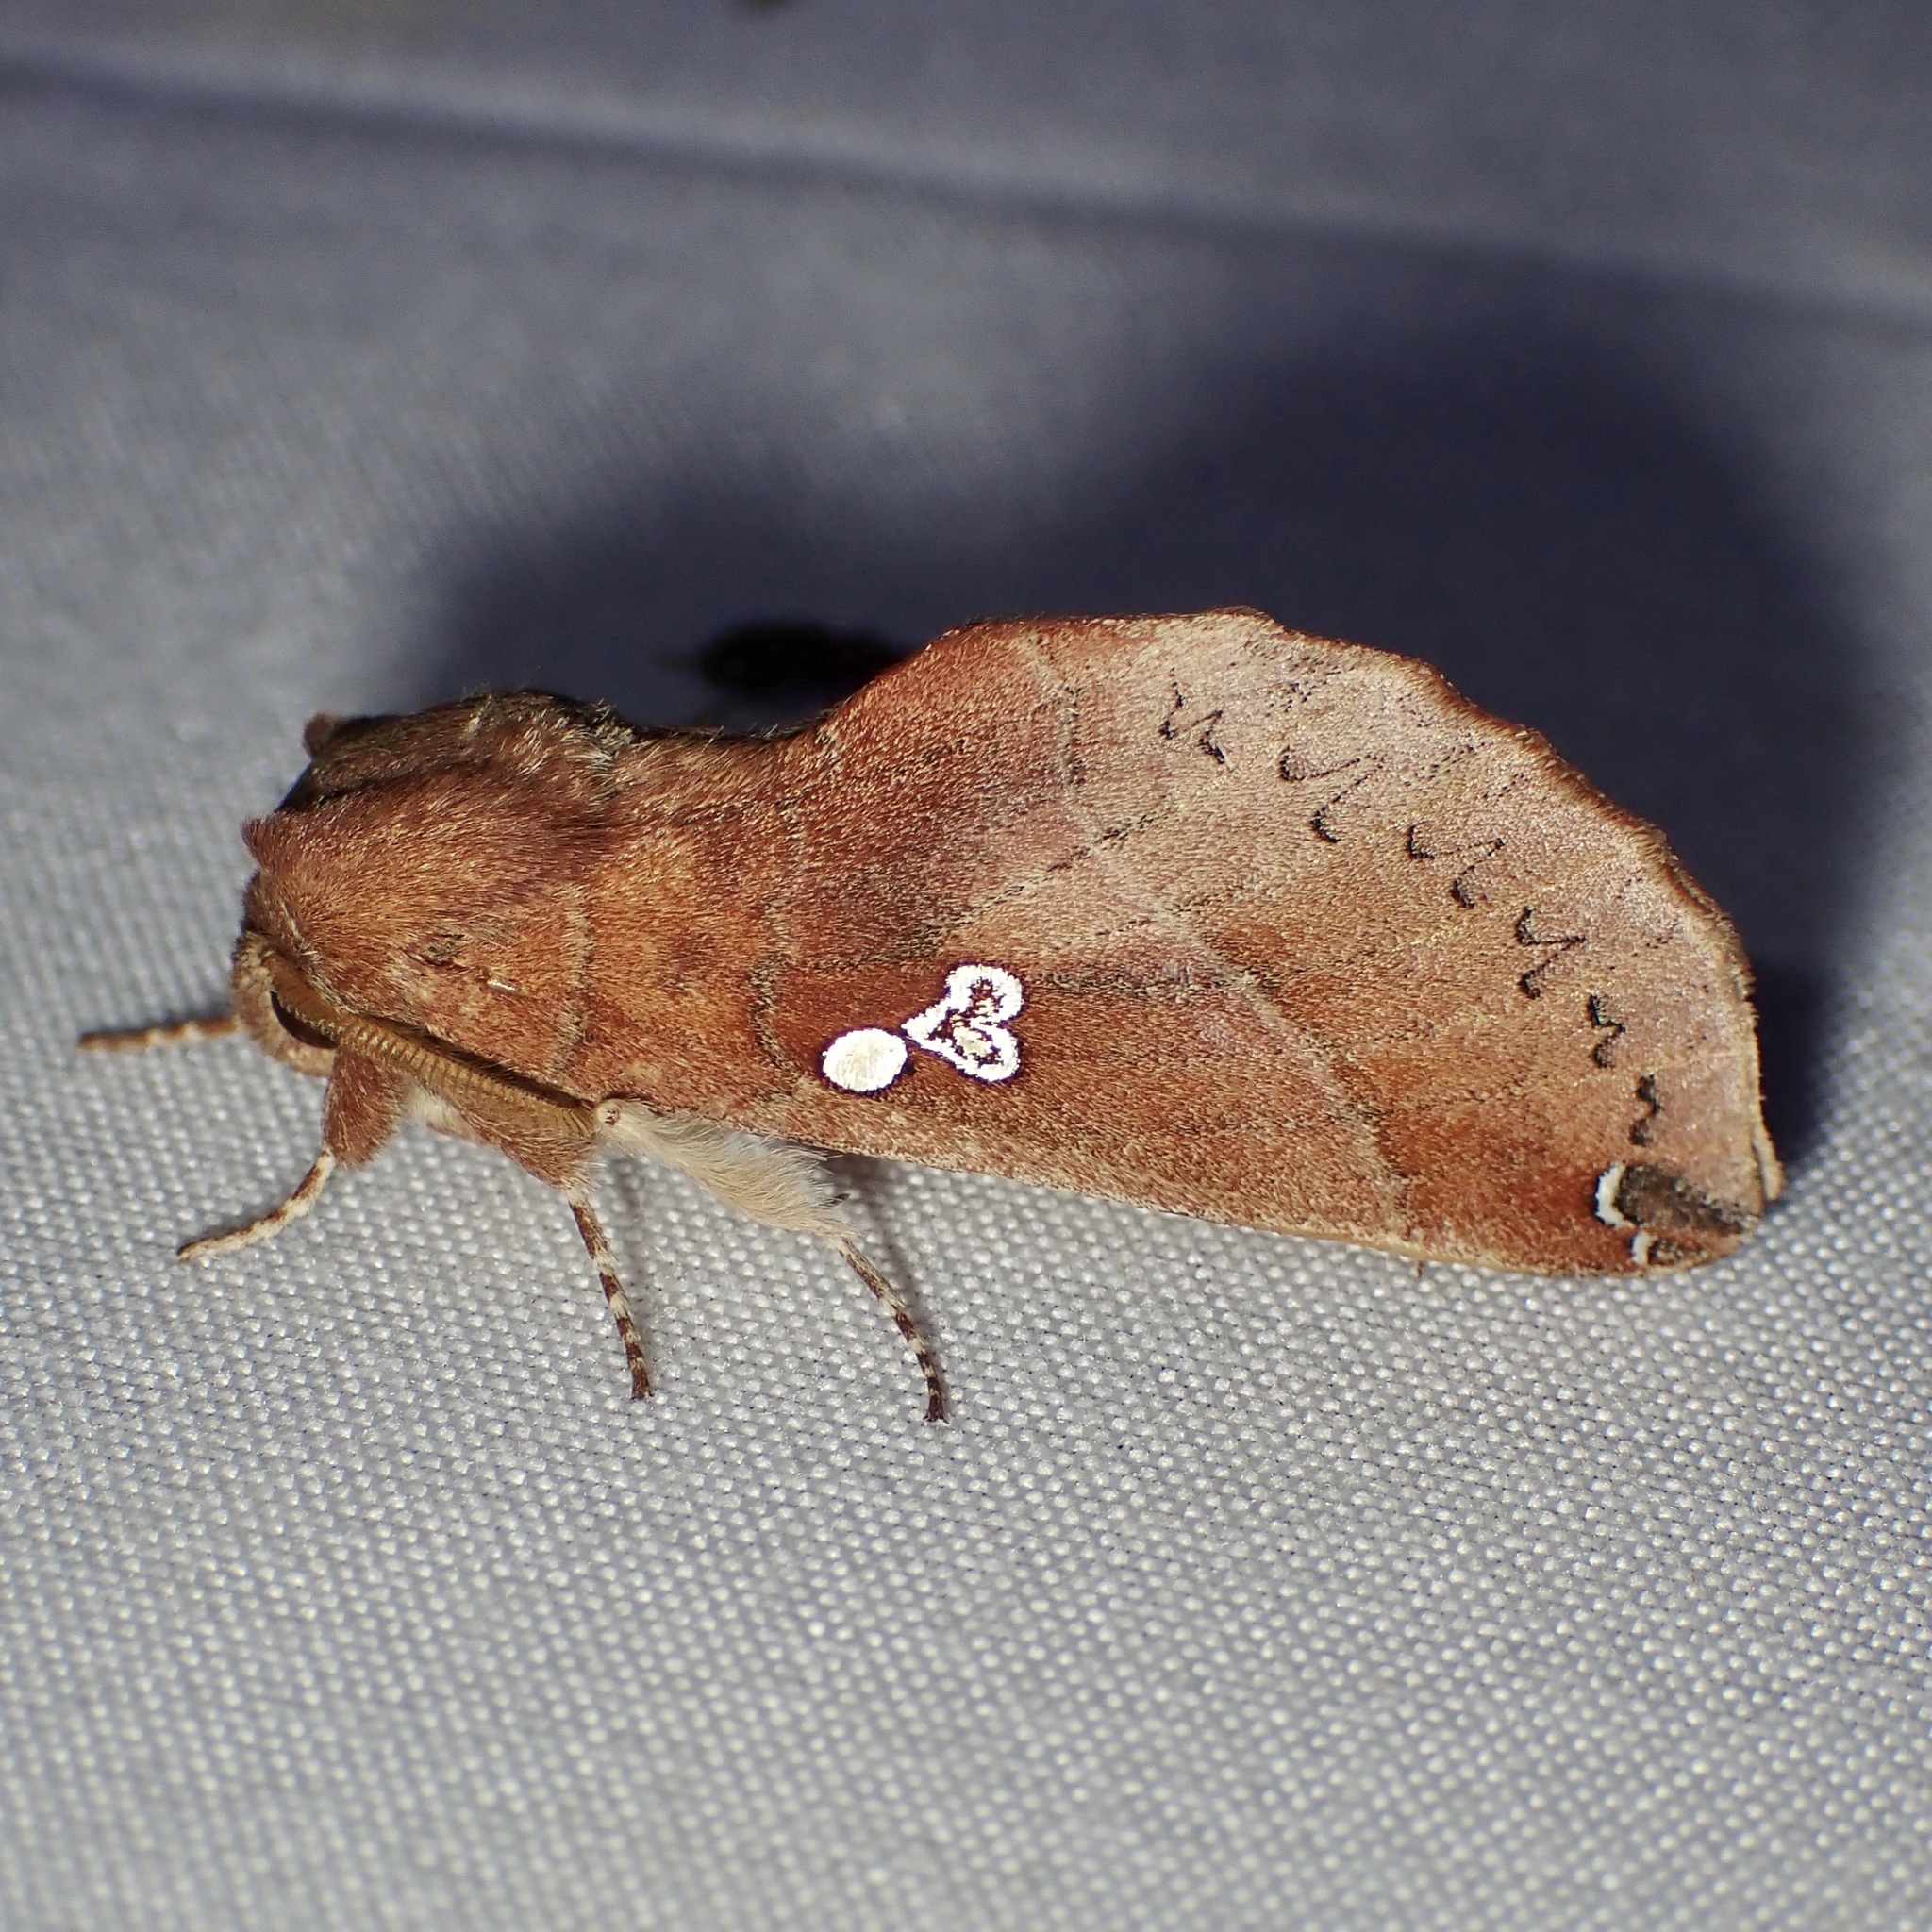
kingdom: Animalia
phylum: Arthropoda
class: Insecta
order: Lepidoptera
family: Notodontidae
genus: Pseudhapigia
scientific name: Pseudhapigia brunnea
